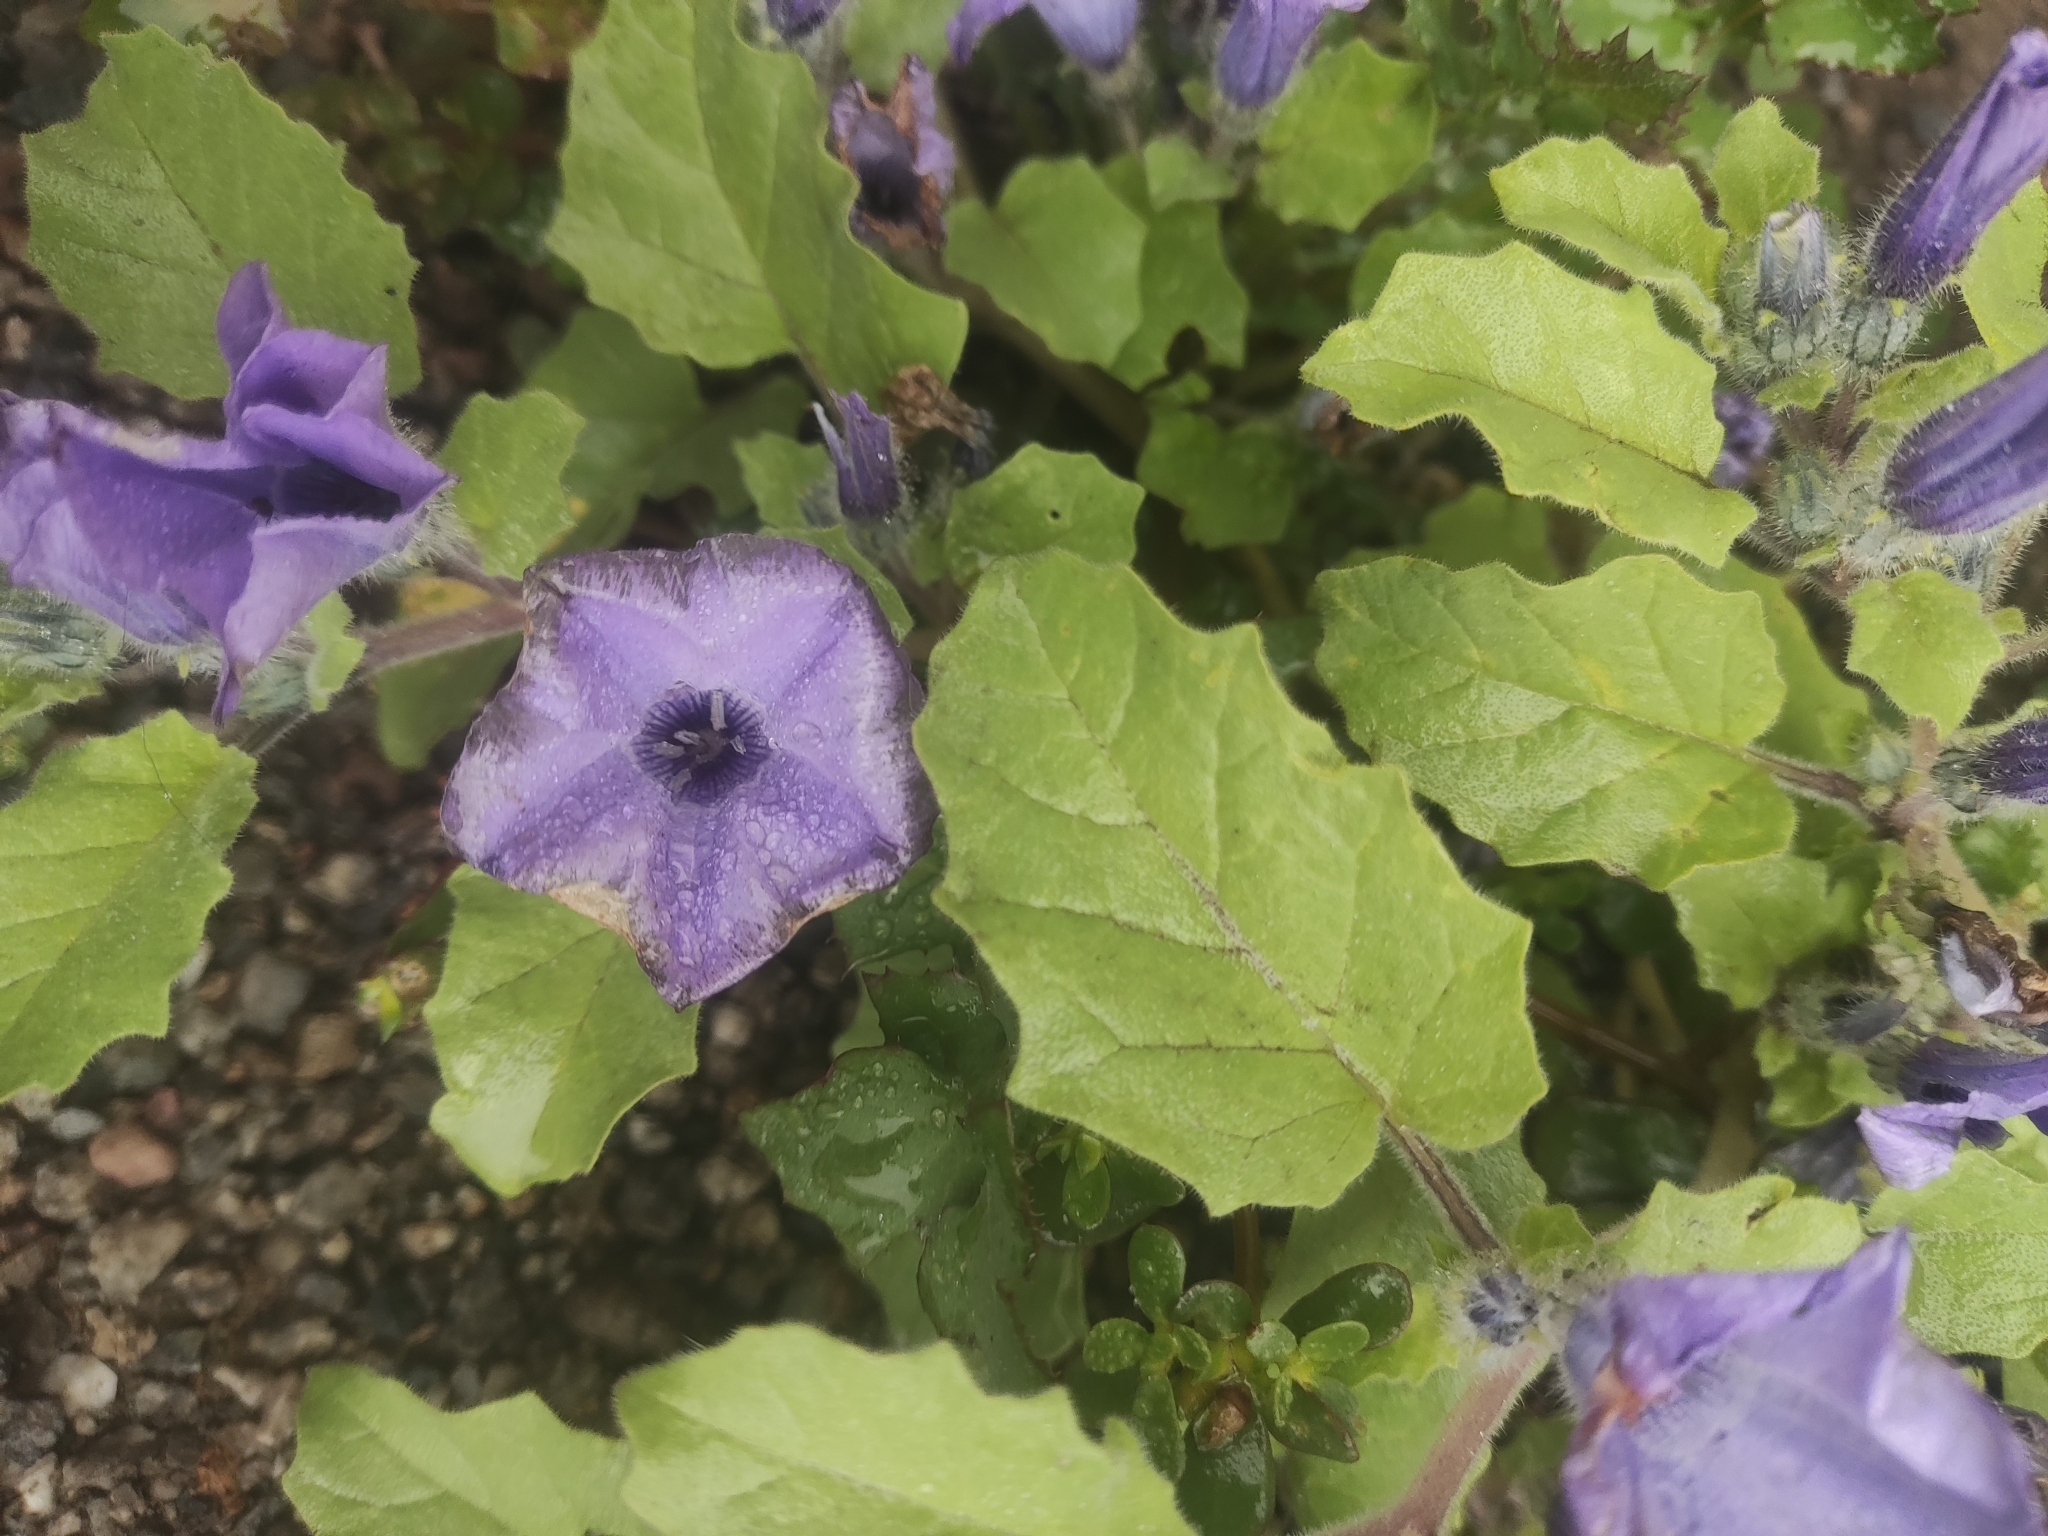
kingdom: Plantae
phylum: Tracheophyta
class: Magnoliopsida
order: Solanales
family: Solanaceae
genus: Exodeconus
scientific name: Exodeconus prostratus
